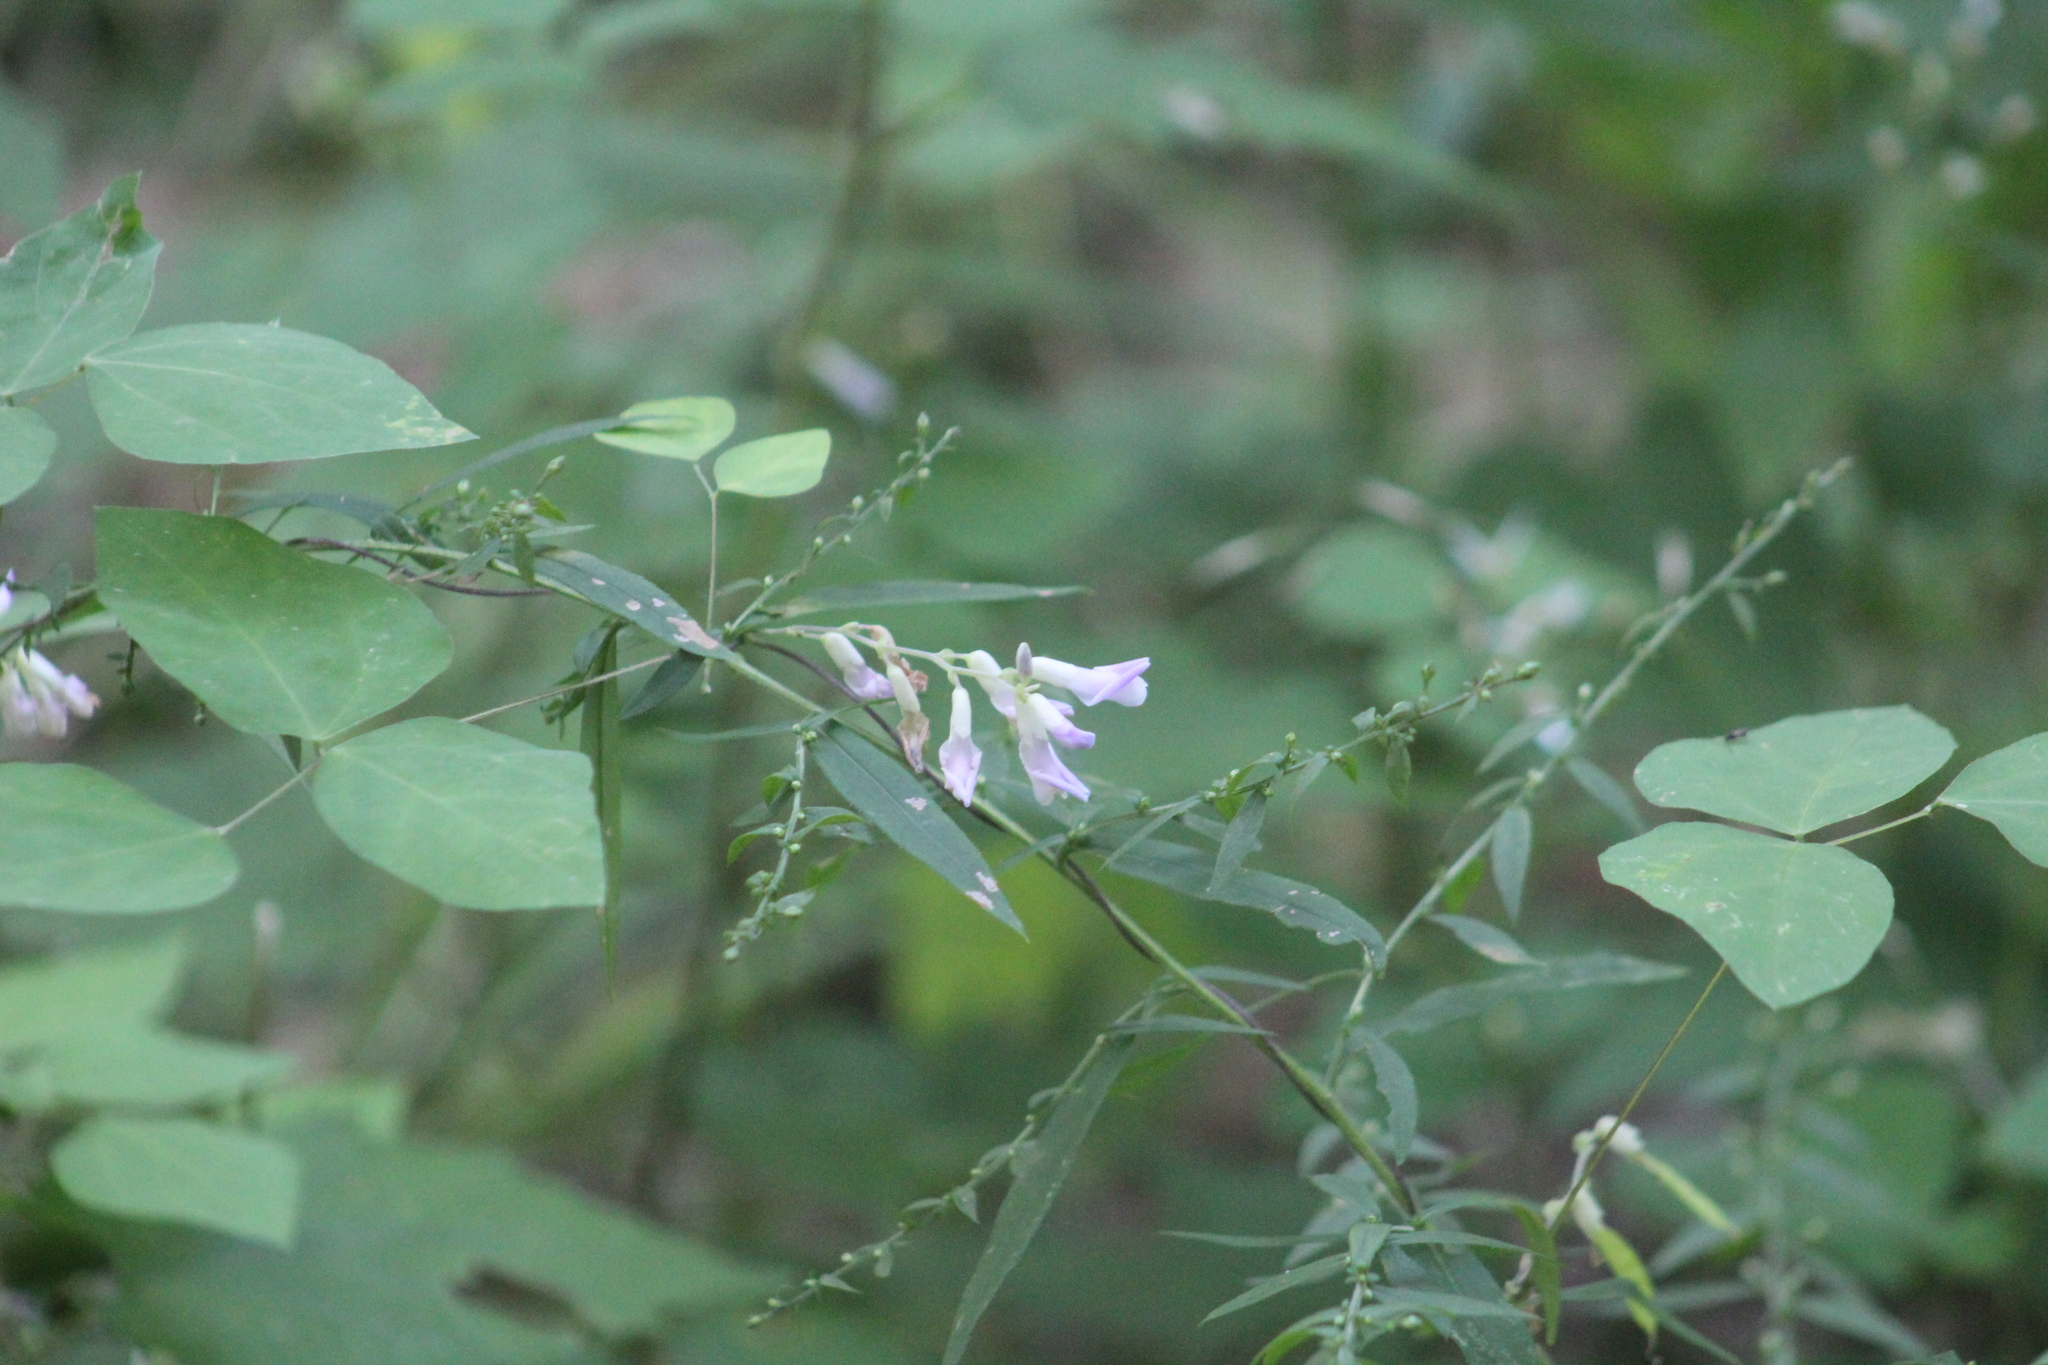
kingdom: Plantae
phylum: Tracheophyta
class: Magnoliopsida
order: Fabales
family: Fabaceae
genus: Amphicarpaea
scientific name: Amphicarpaea bracteata
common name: American hog peanut
